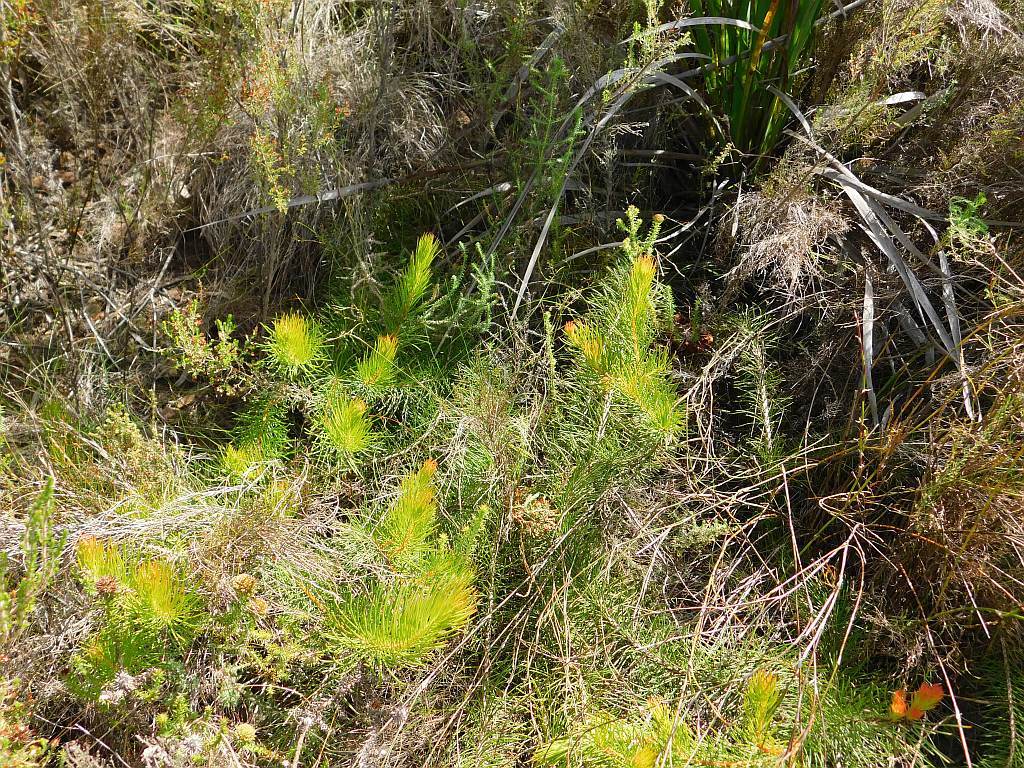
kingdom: Plantae
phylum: Tracheophyta
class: Magnoliopsida
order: Proteales
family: Proteaceae
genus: Protea
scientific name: Protea subulifolia
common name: Awl-leaf sugarbush
